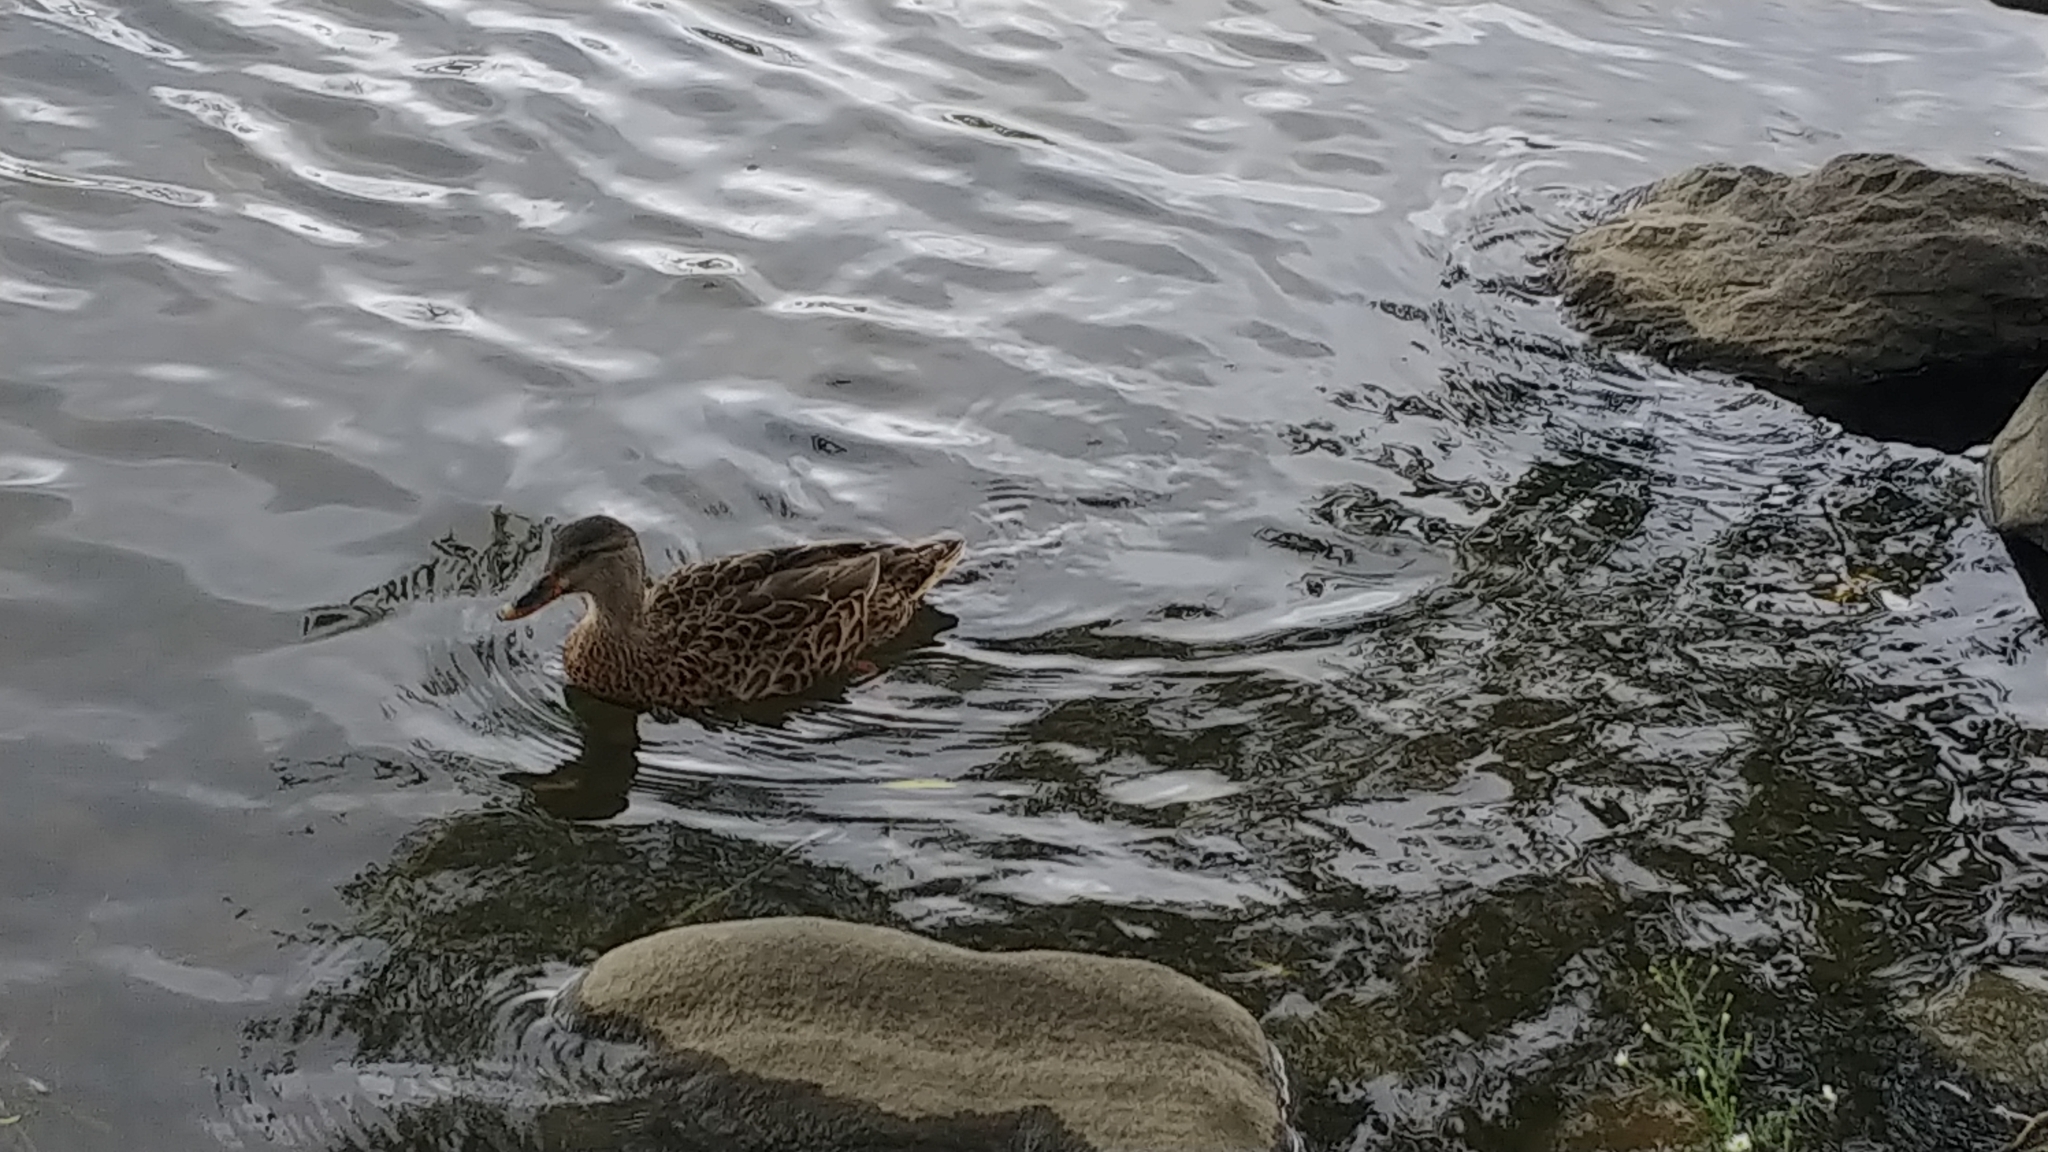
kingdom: Animalia
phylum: Chordata
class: Aves
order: Anseriformes
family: Anatidae
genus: Anas
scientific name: Anas platyrhynchos
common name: Mallard
